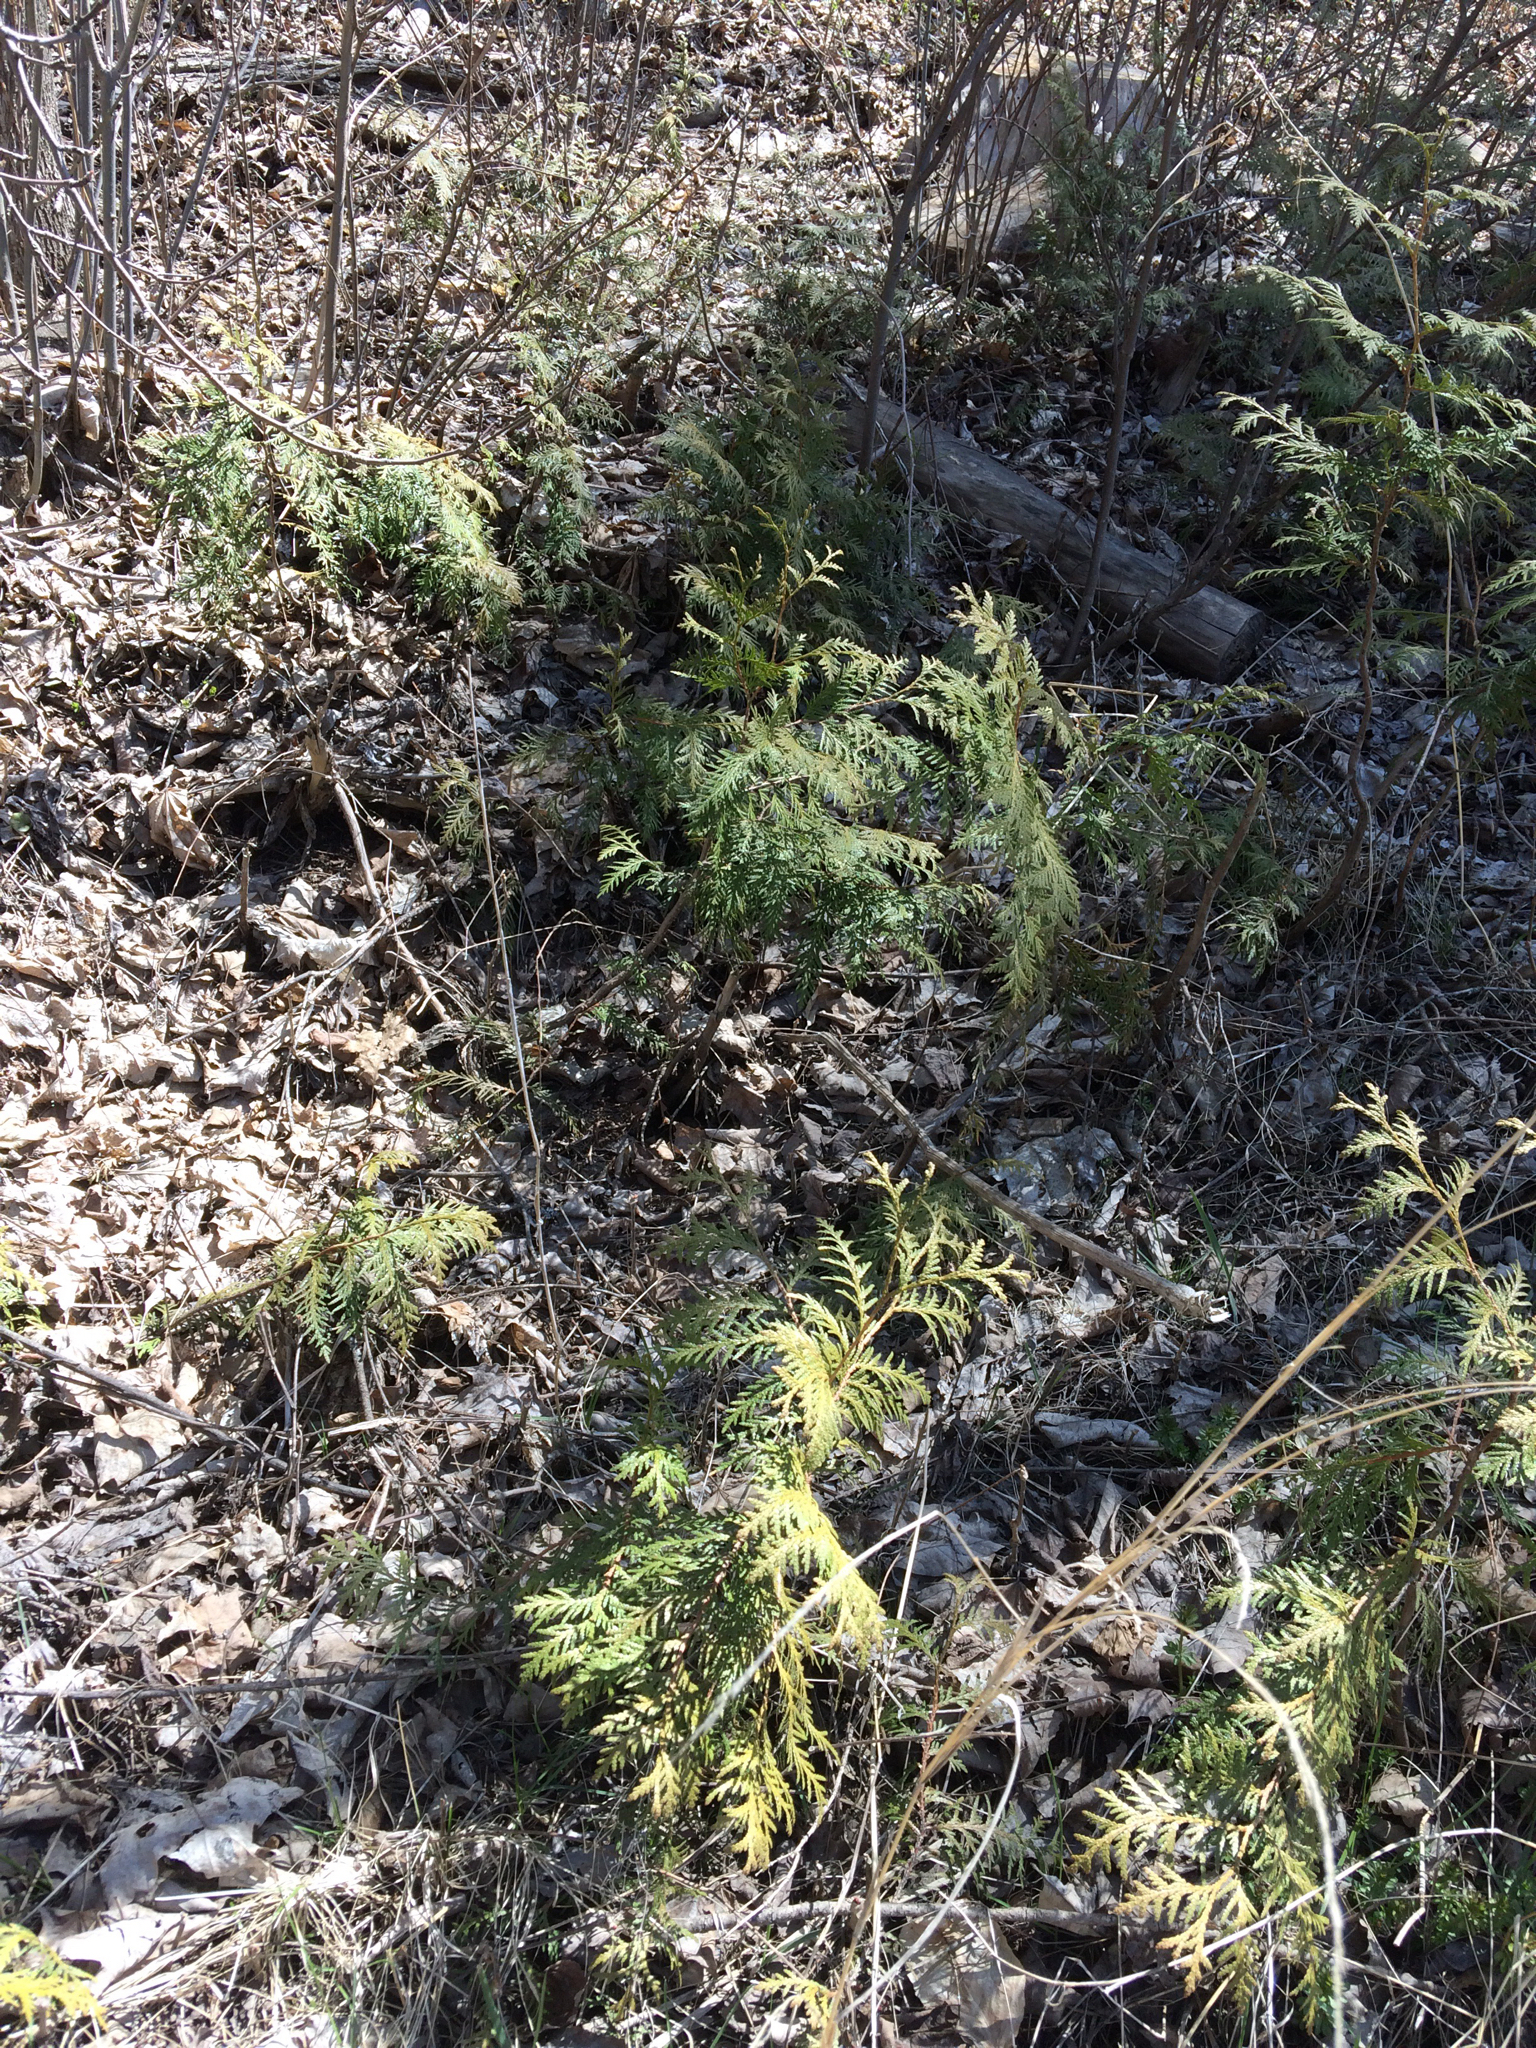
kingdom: Plantae
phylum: Tracheophyta
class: Pinopsida
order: Pinales
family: Cupressaceae
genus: Thuja
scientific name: Thuja occidentalis
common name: Northern white-cedar
